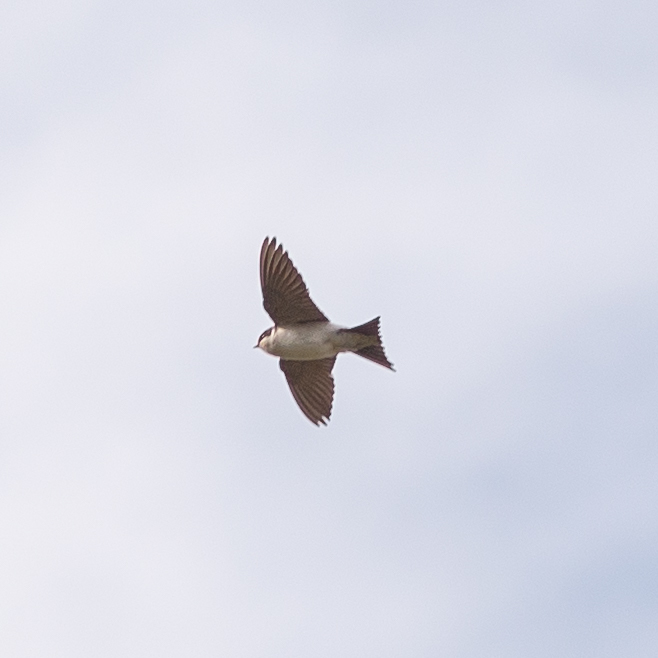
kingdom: Animalia
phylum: Chordata
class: Aves
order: Passeriformes
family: Hirundinidae
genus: Delichon
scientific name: Delichon urbicum
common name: Common house martin
